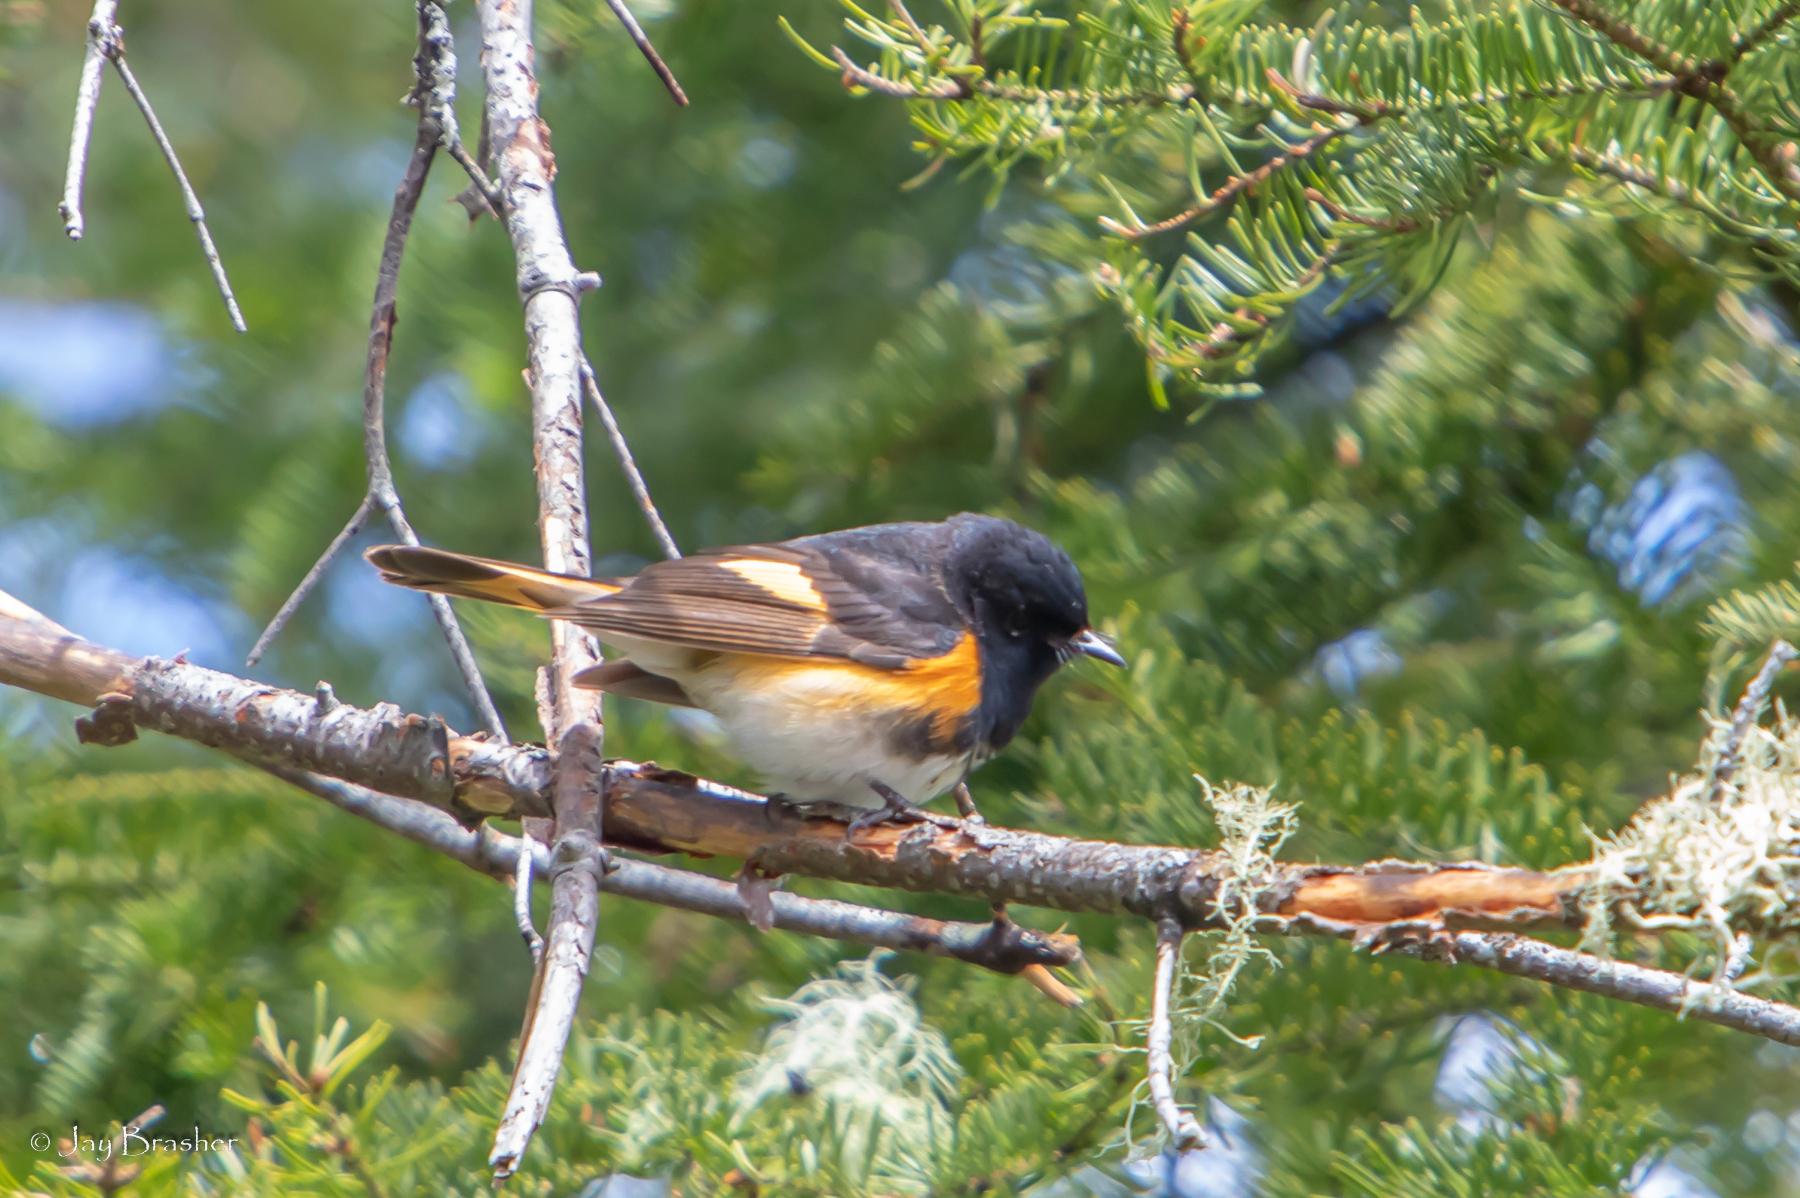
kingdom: Animalia
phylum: Chordata
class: Aves
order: Passeriformes
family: Parulidae
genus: Setophaga
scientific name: Setophaga ruticilla
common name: American redstart
